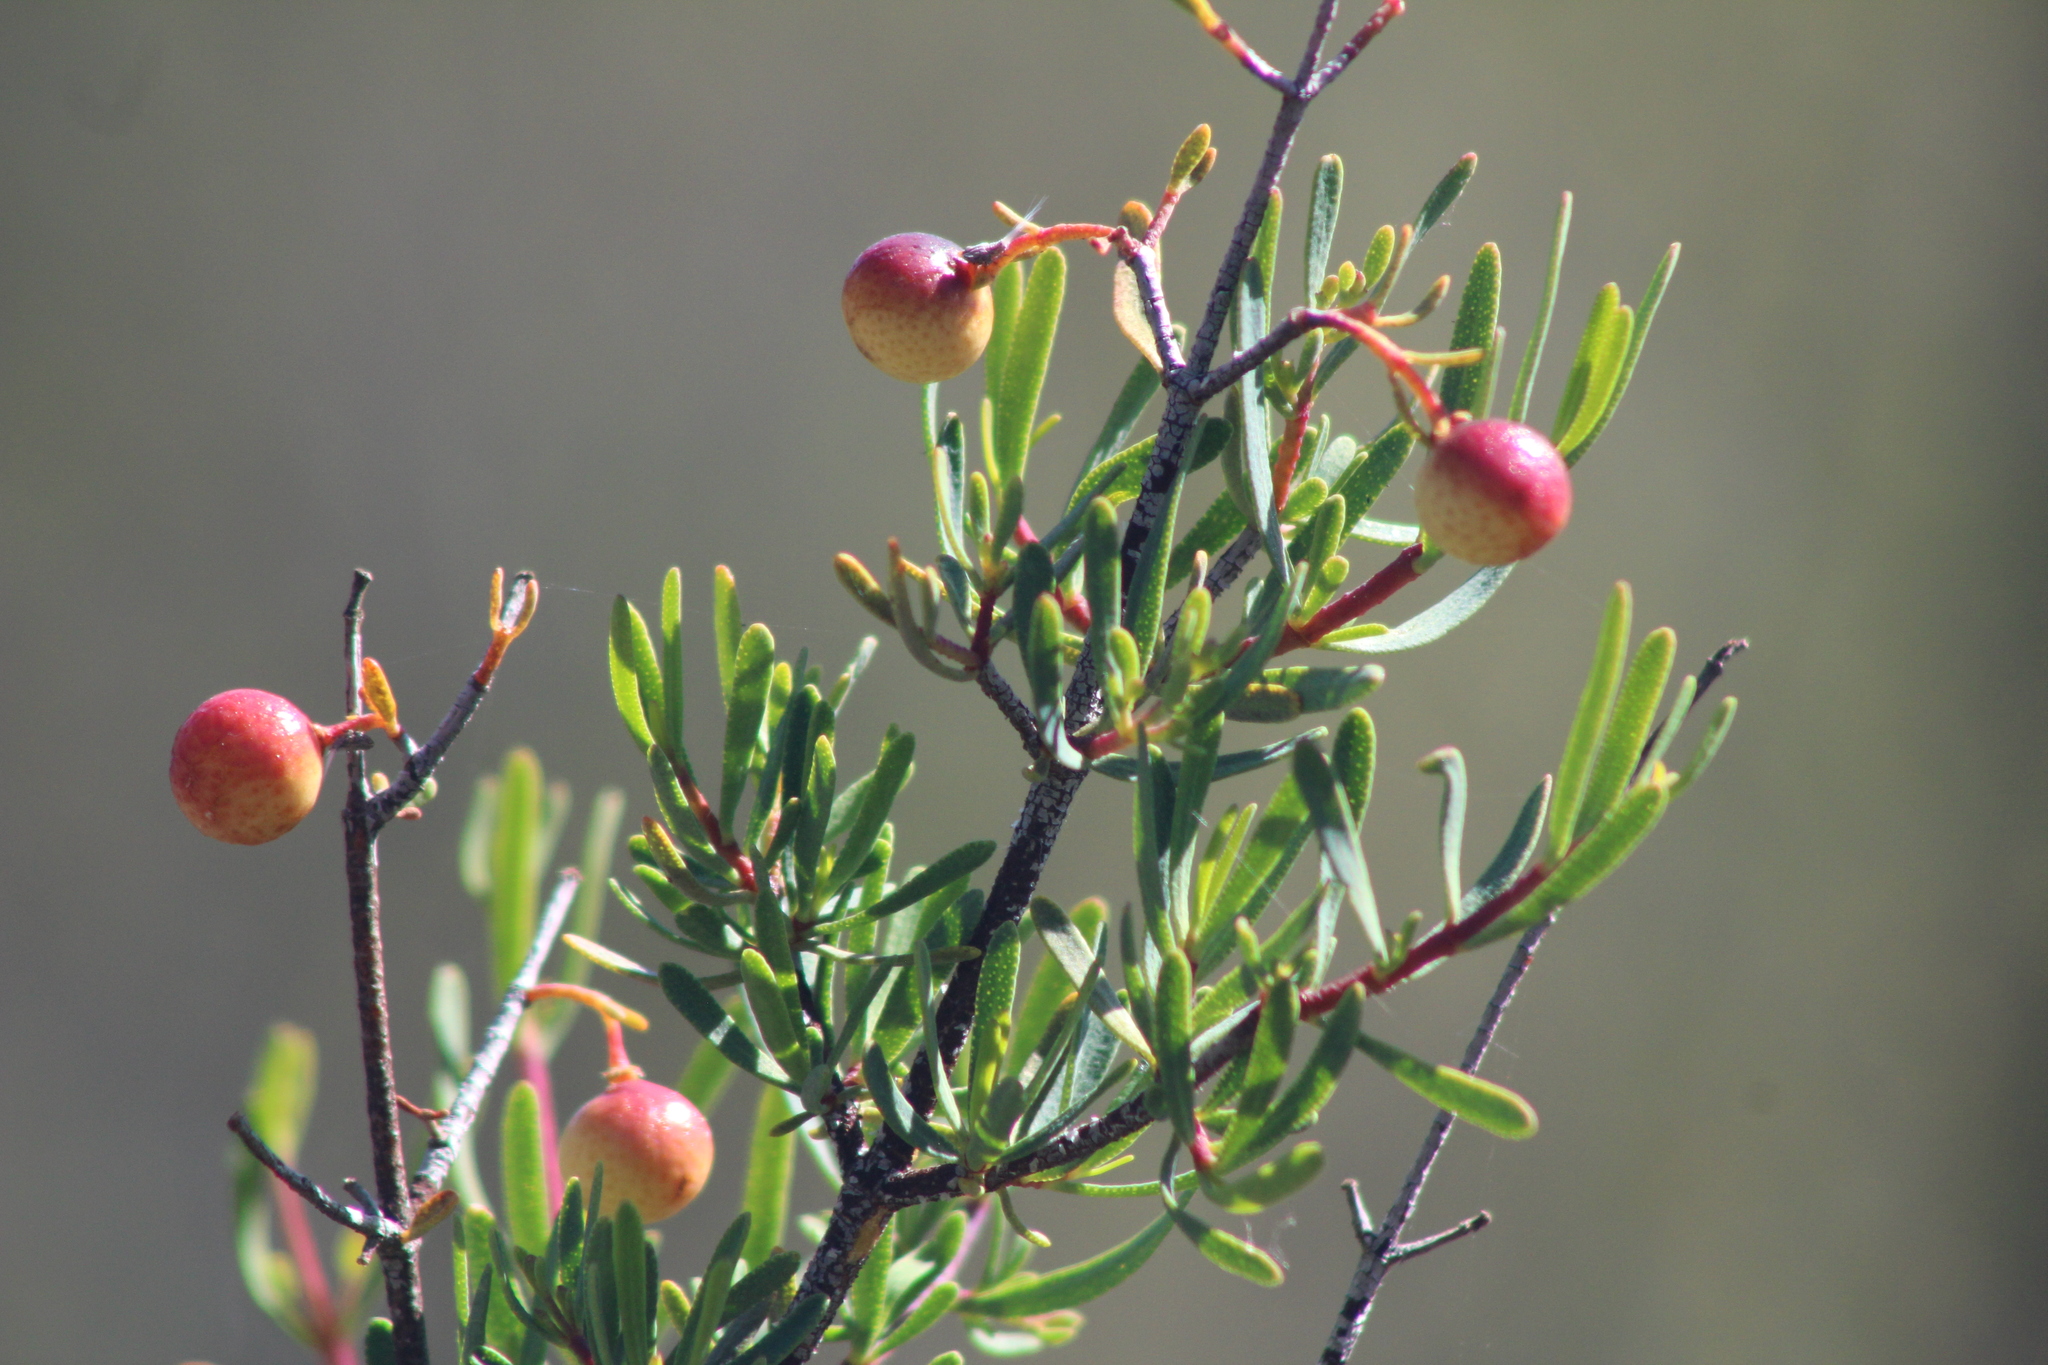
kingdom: Plantae
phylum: Tracheophyta
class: Magnoliopsida
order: Sapindales
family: Rutaceae
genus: Cneoridium
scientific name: Cneoridium dumosum
